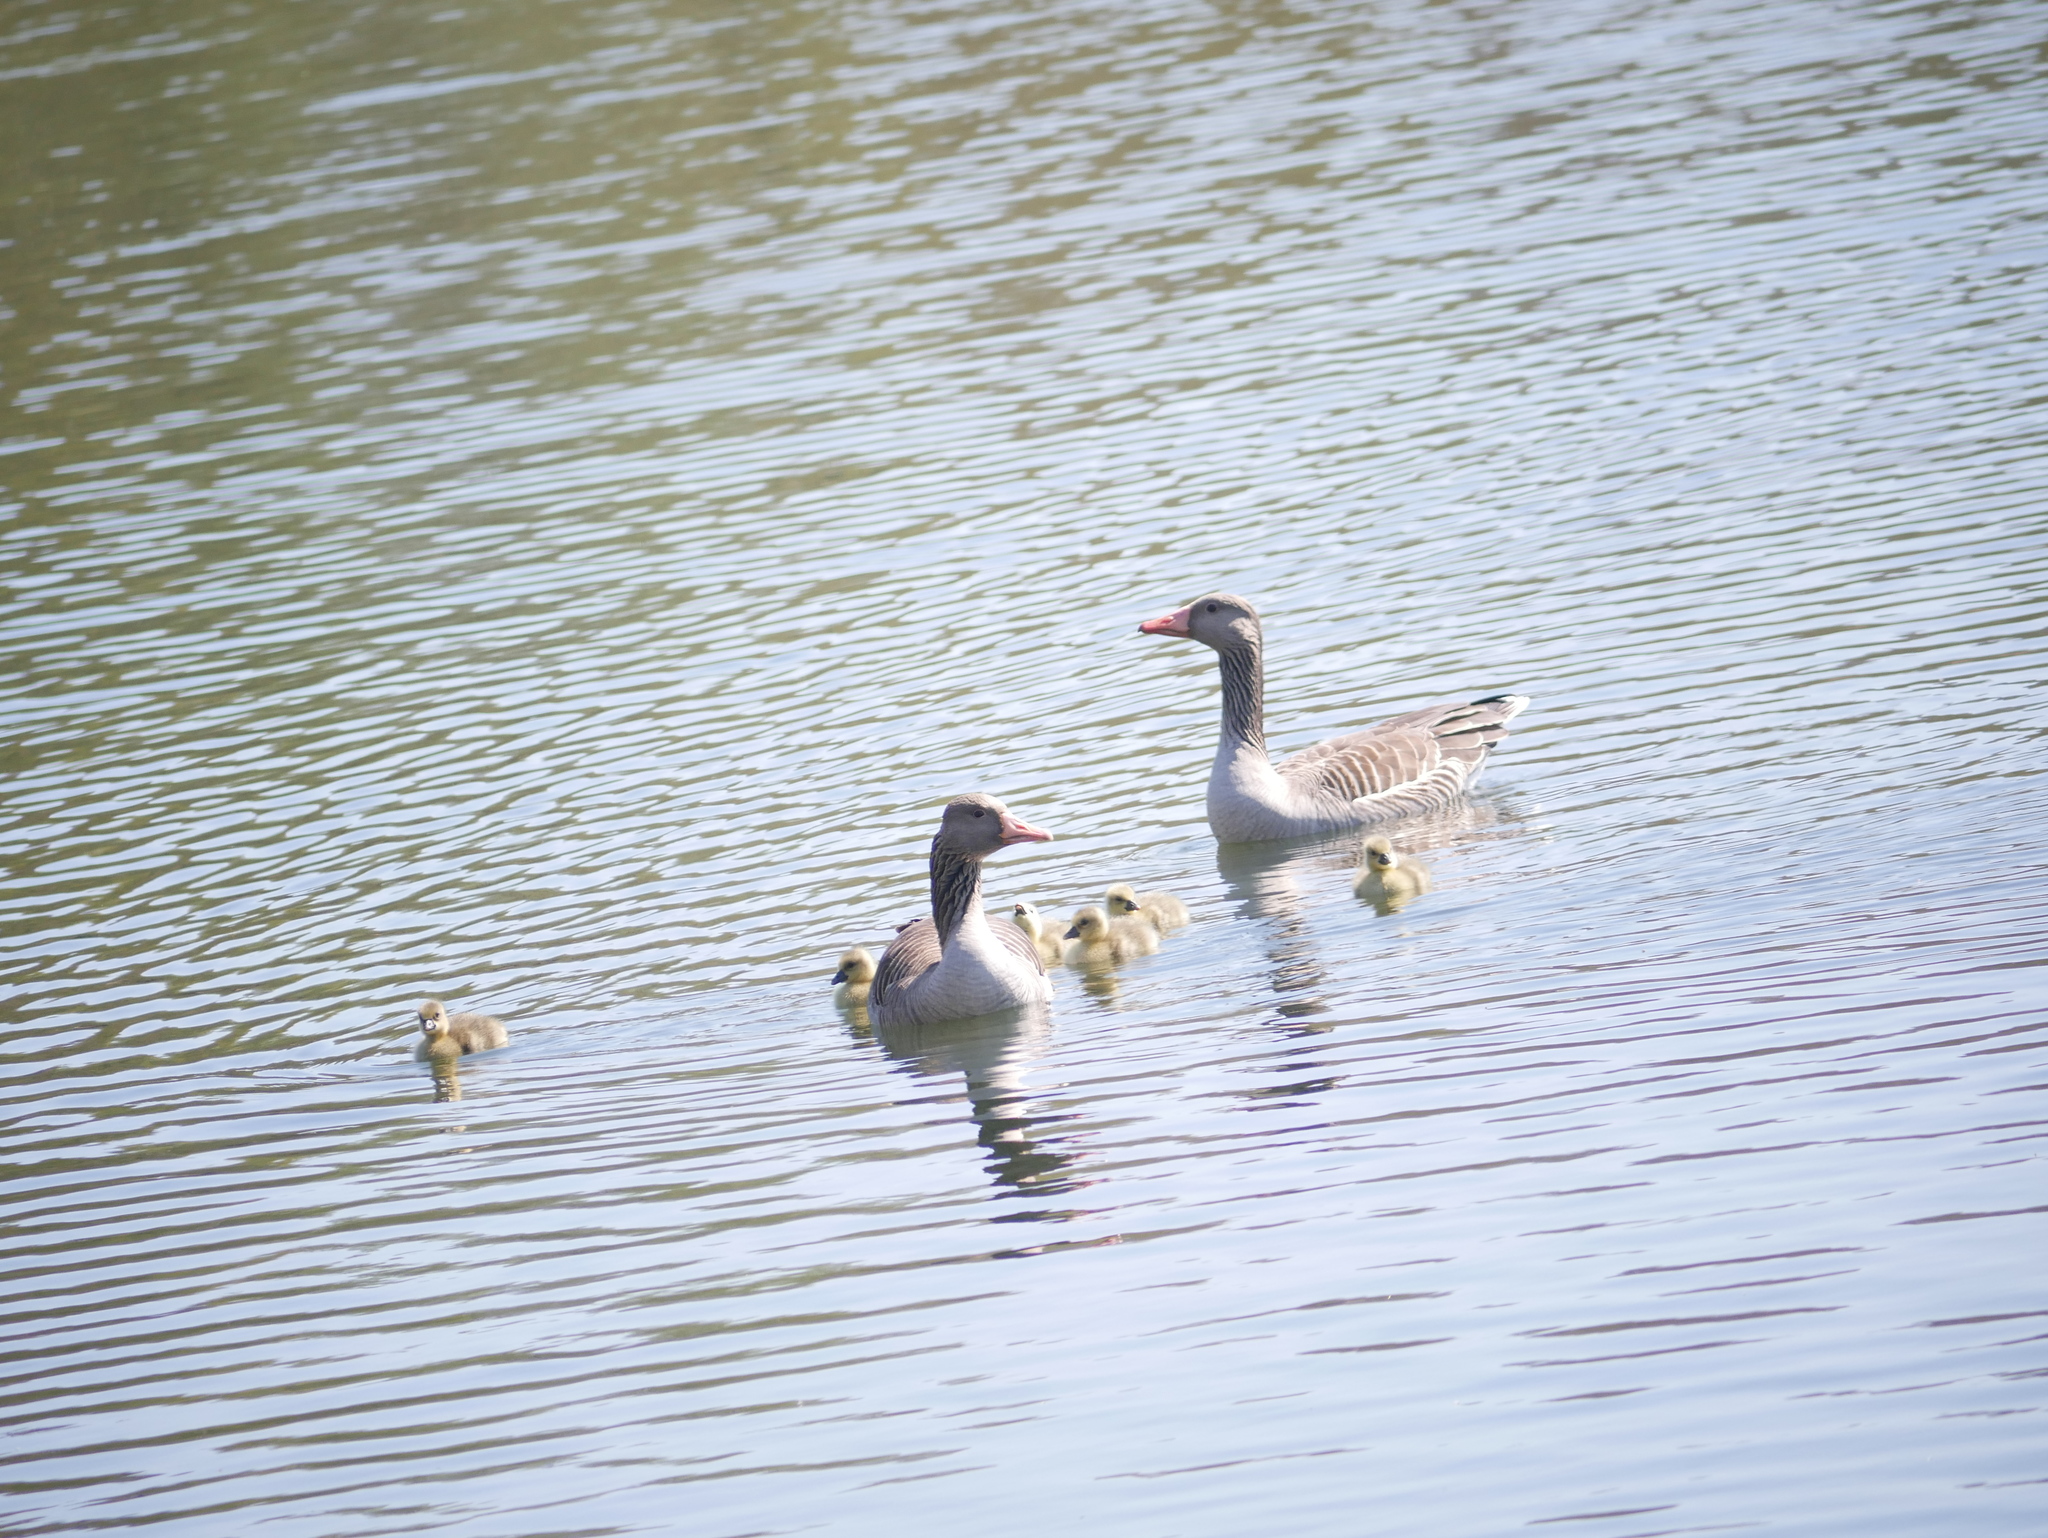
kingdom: Animalia
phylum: Chordata
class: Aves
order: Anseriformes
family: Anatidae
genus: Anser
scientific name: Anser anser
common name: Greylag goose
